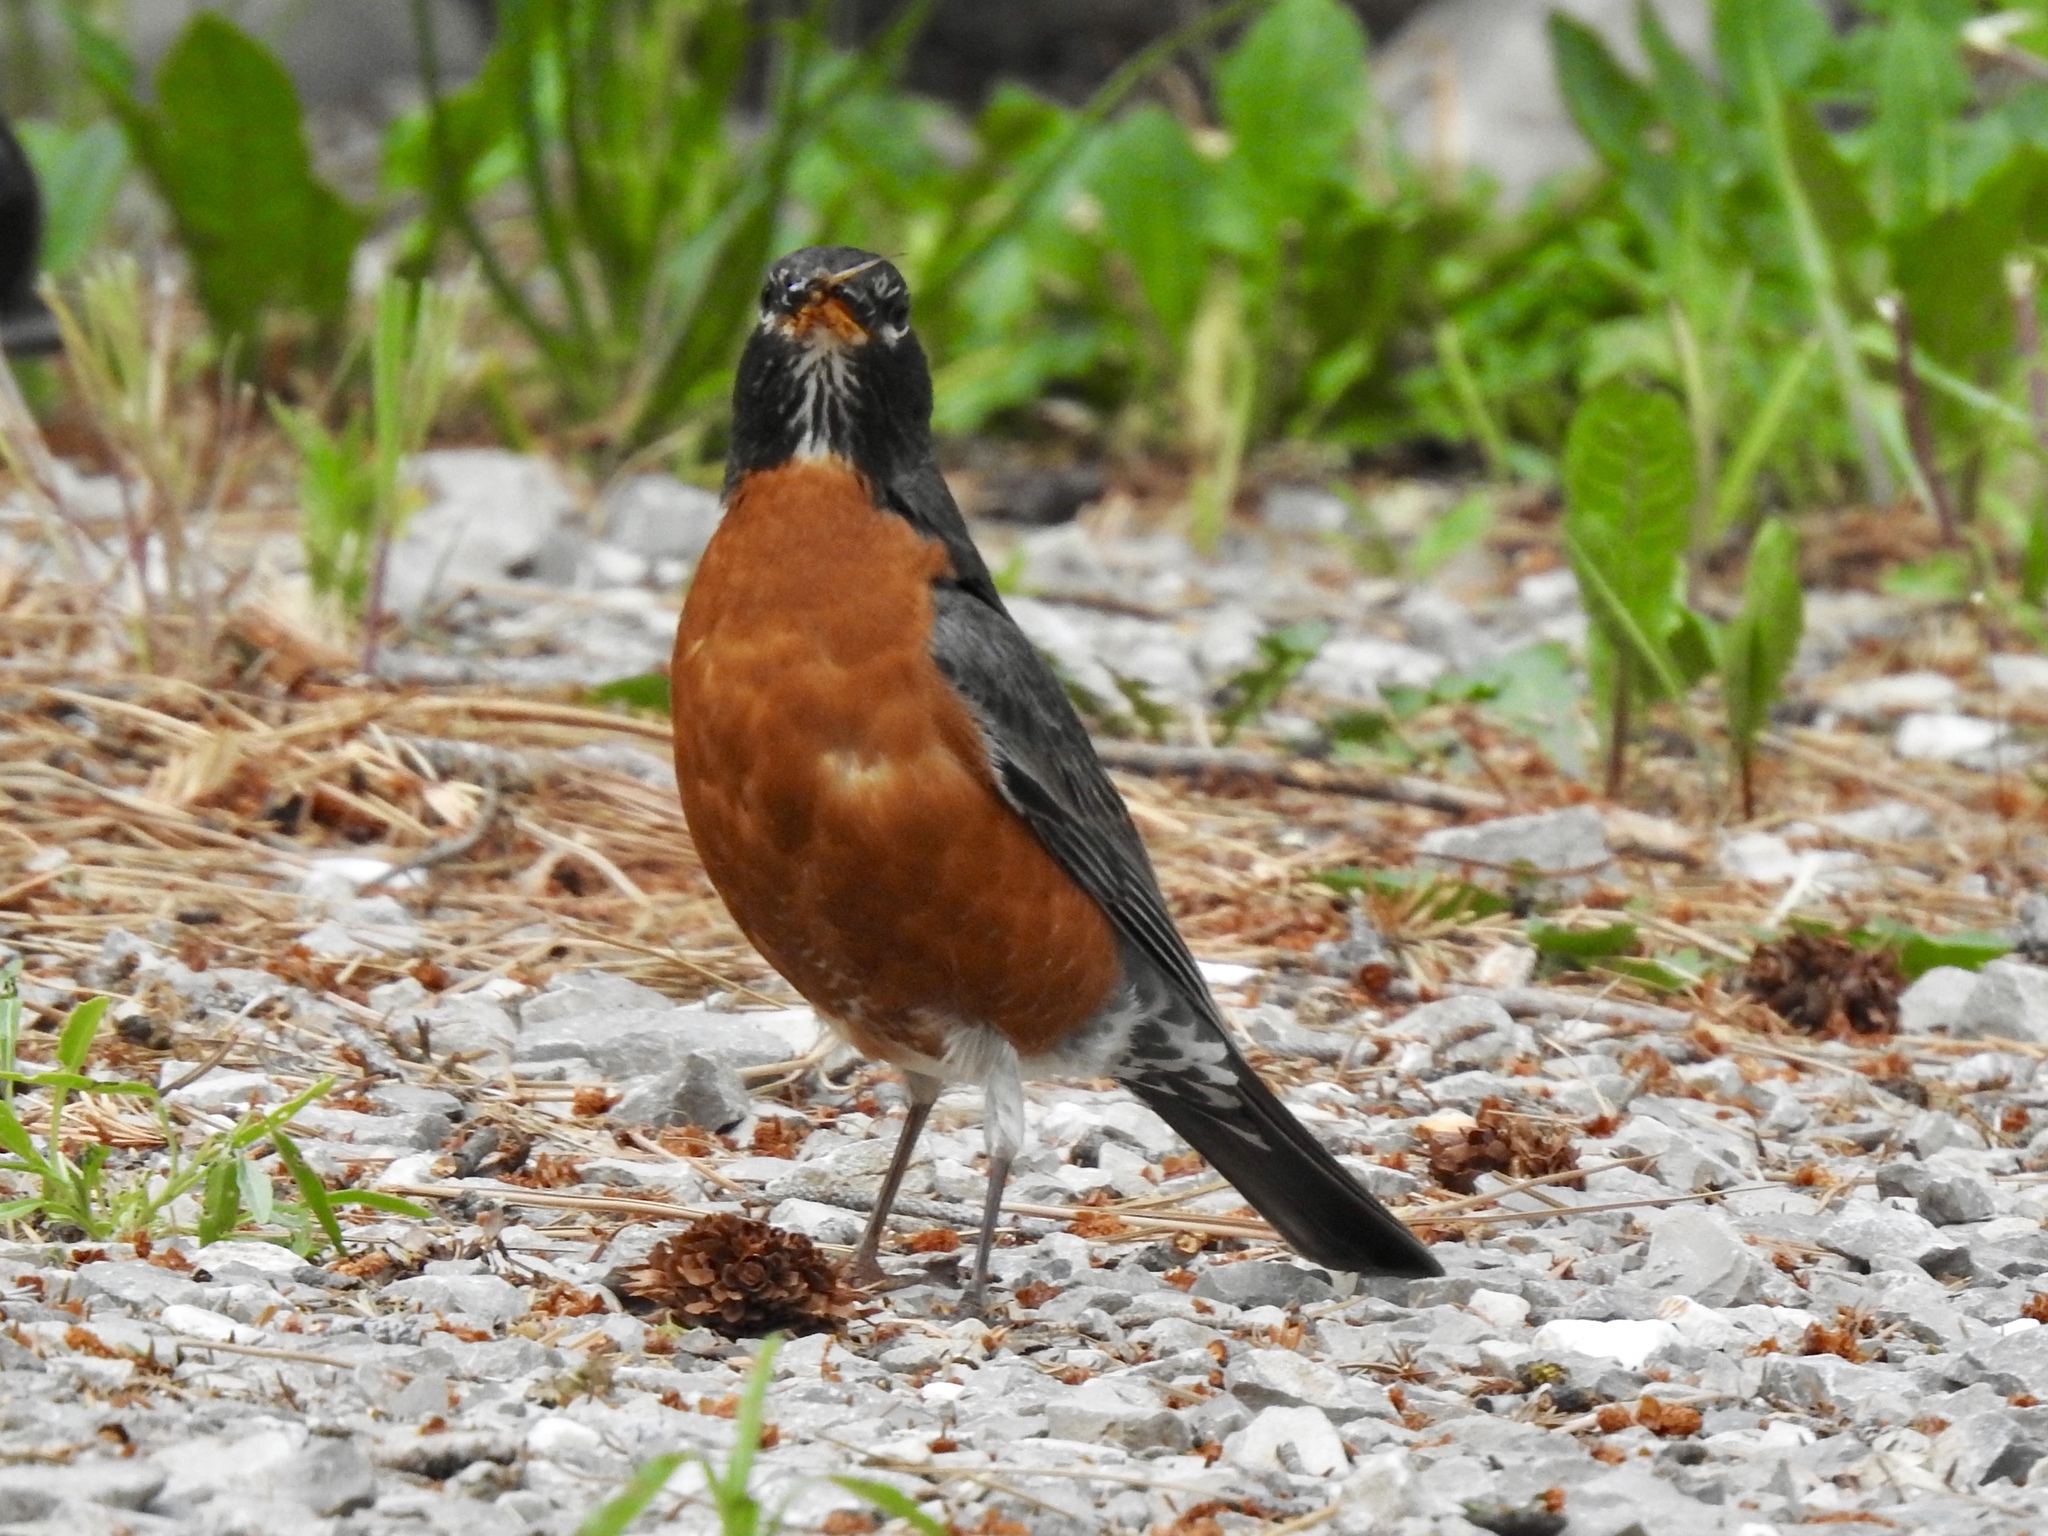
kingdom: Animalia
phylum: Chordata
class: Aves
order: Passeriformes
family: Turdidae
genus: Turdus
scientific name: Turdus migratorius
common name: American robin
